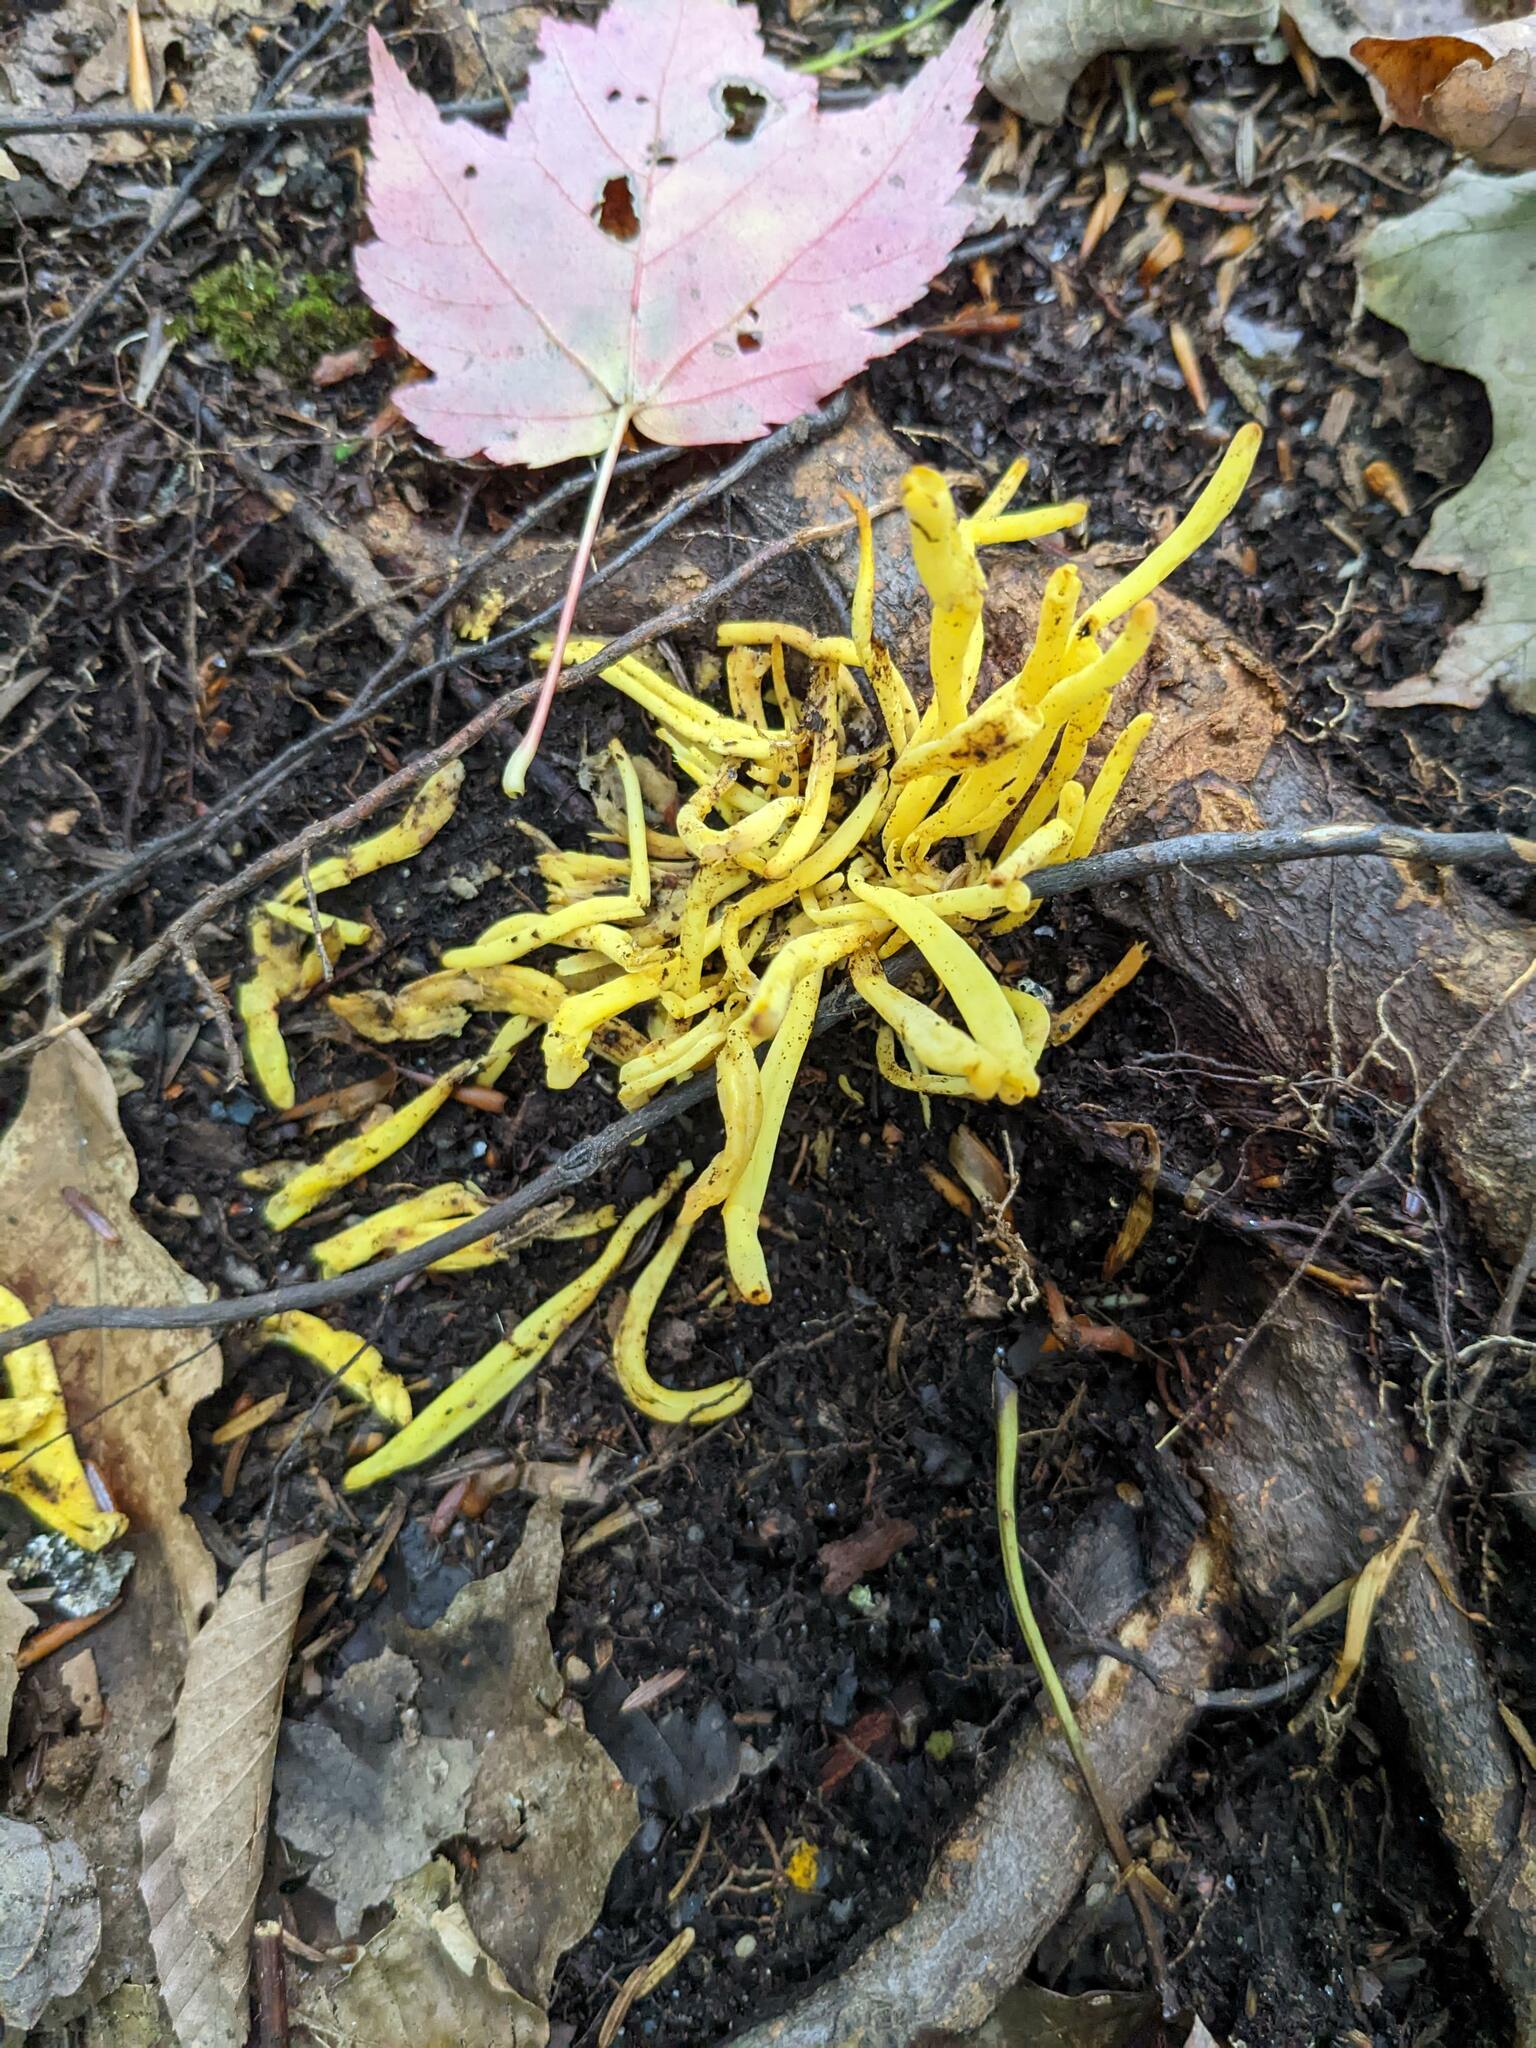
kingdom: Fungi
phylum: Basidiomycota
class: Agaricomycetes
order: Agaricales
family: Clavariaceae
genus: Clavulinopsis
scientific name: Clavulinopsis fusiformis
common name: Golden spindles
